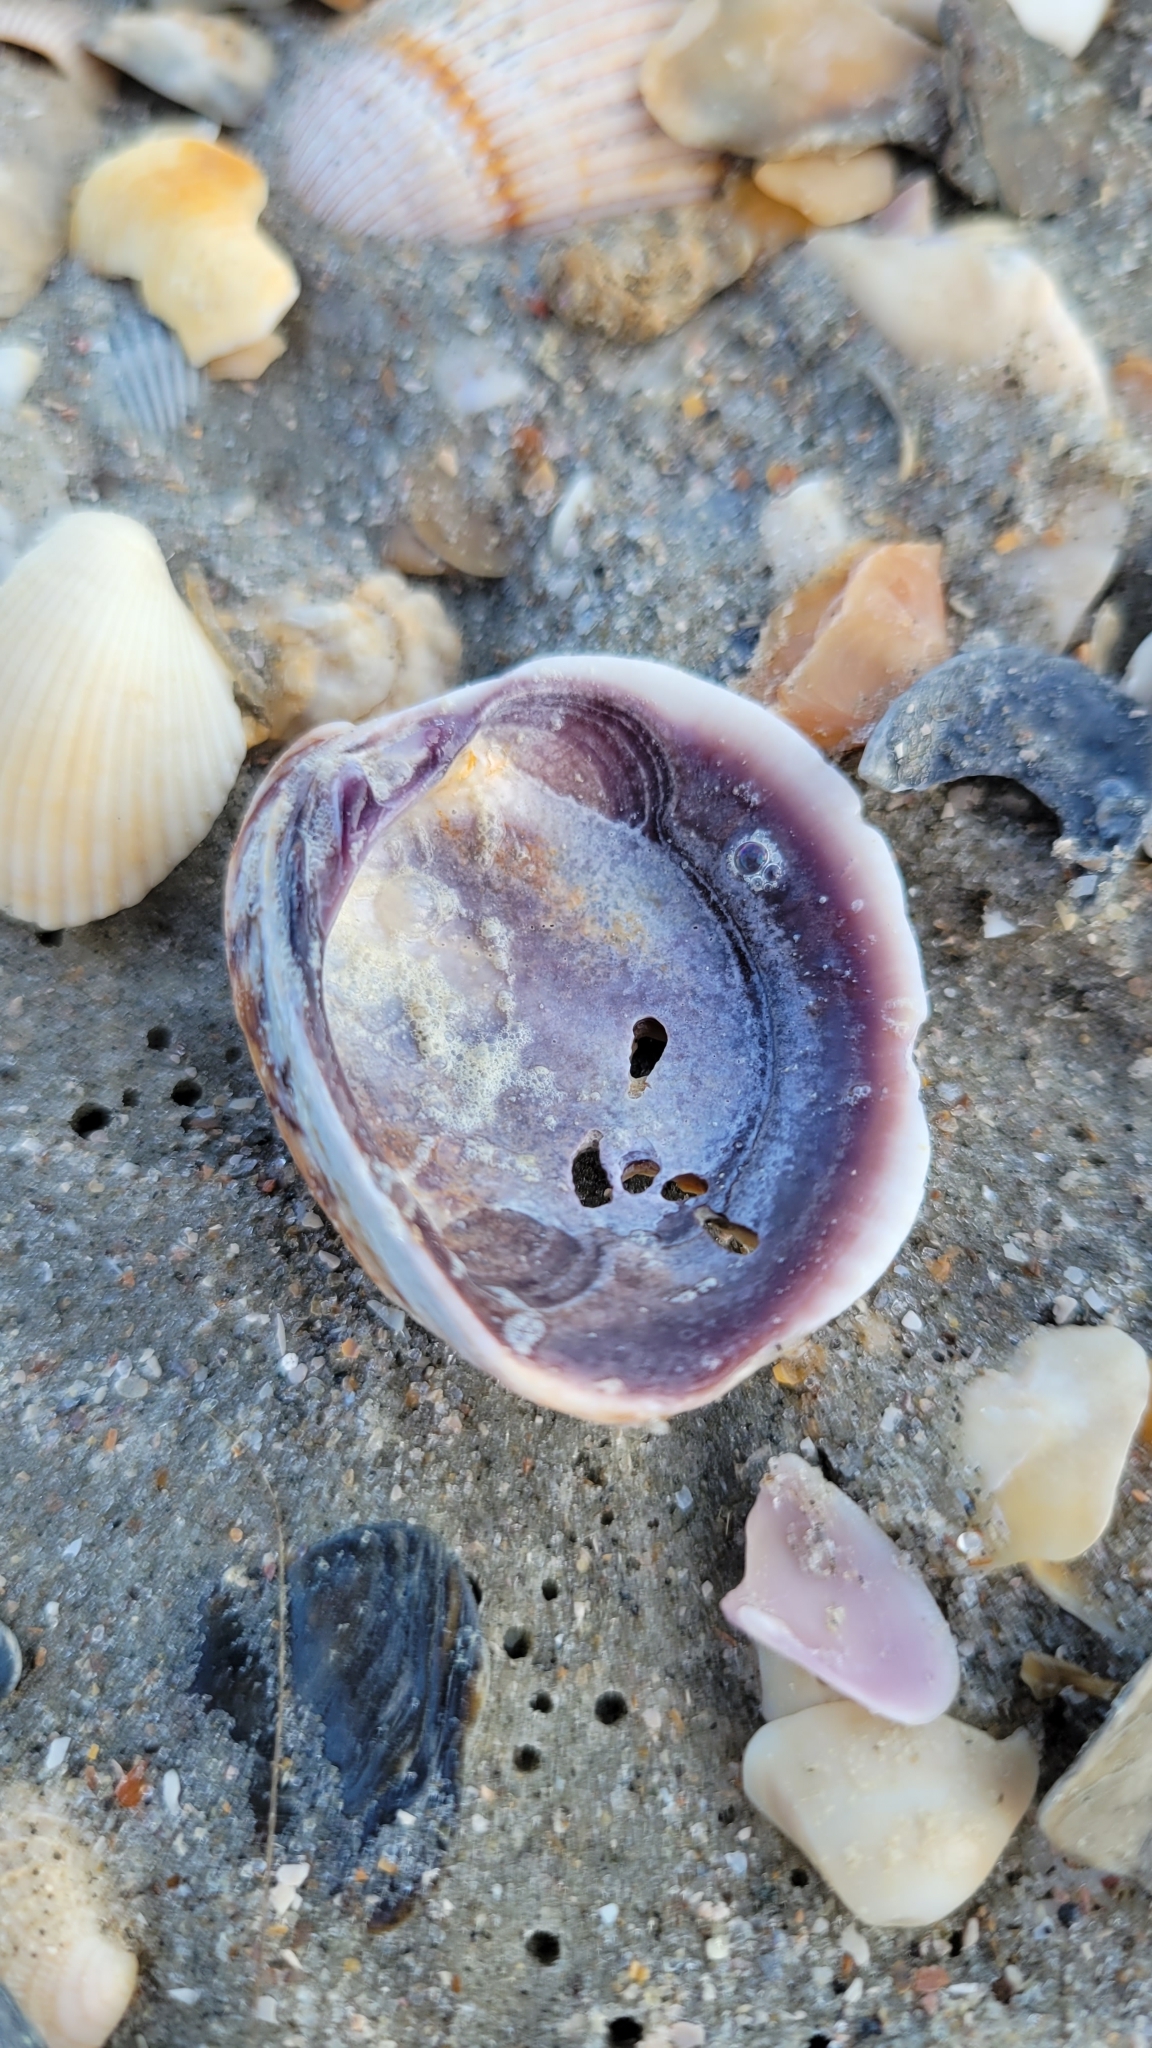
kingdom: Animalia
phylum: Mollusca
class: Bivalvia
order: Venerida
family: Veneridae
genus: Chione
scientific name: Chione elevata
